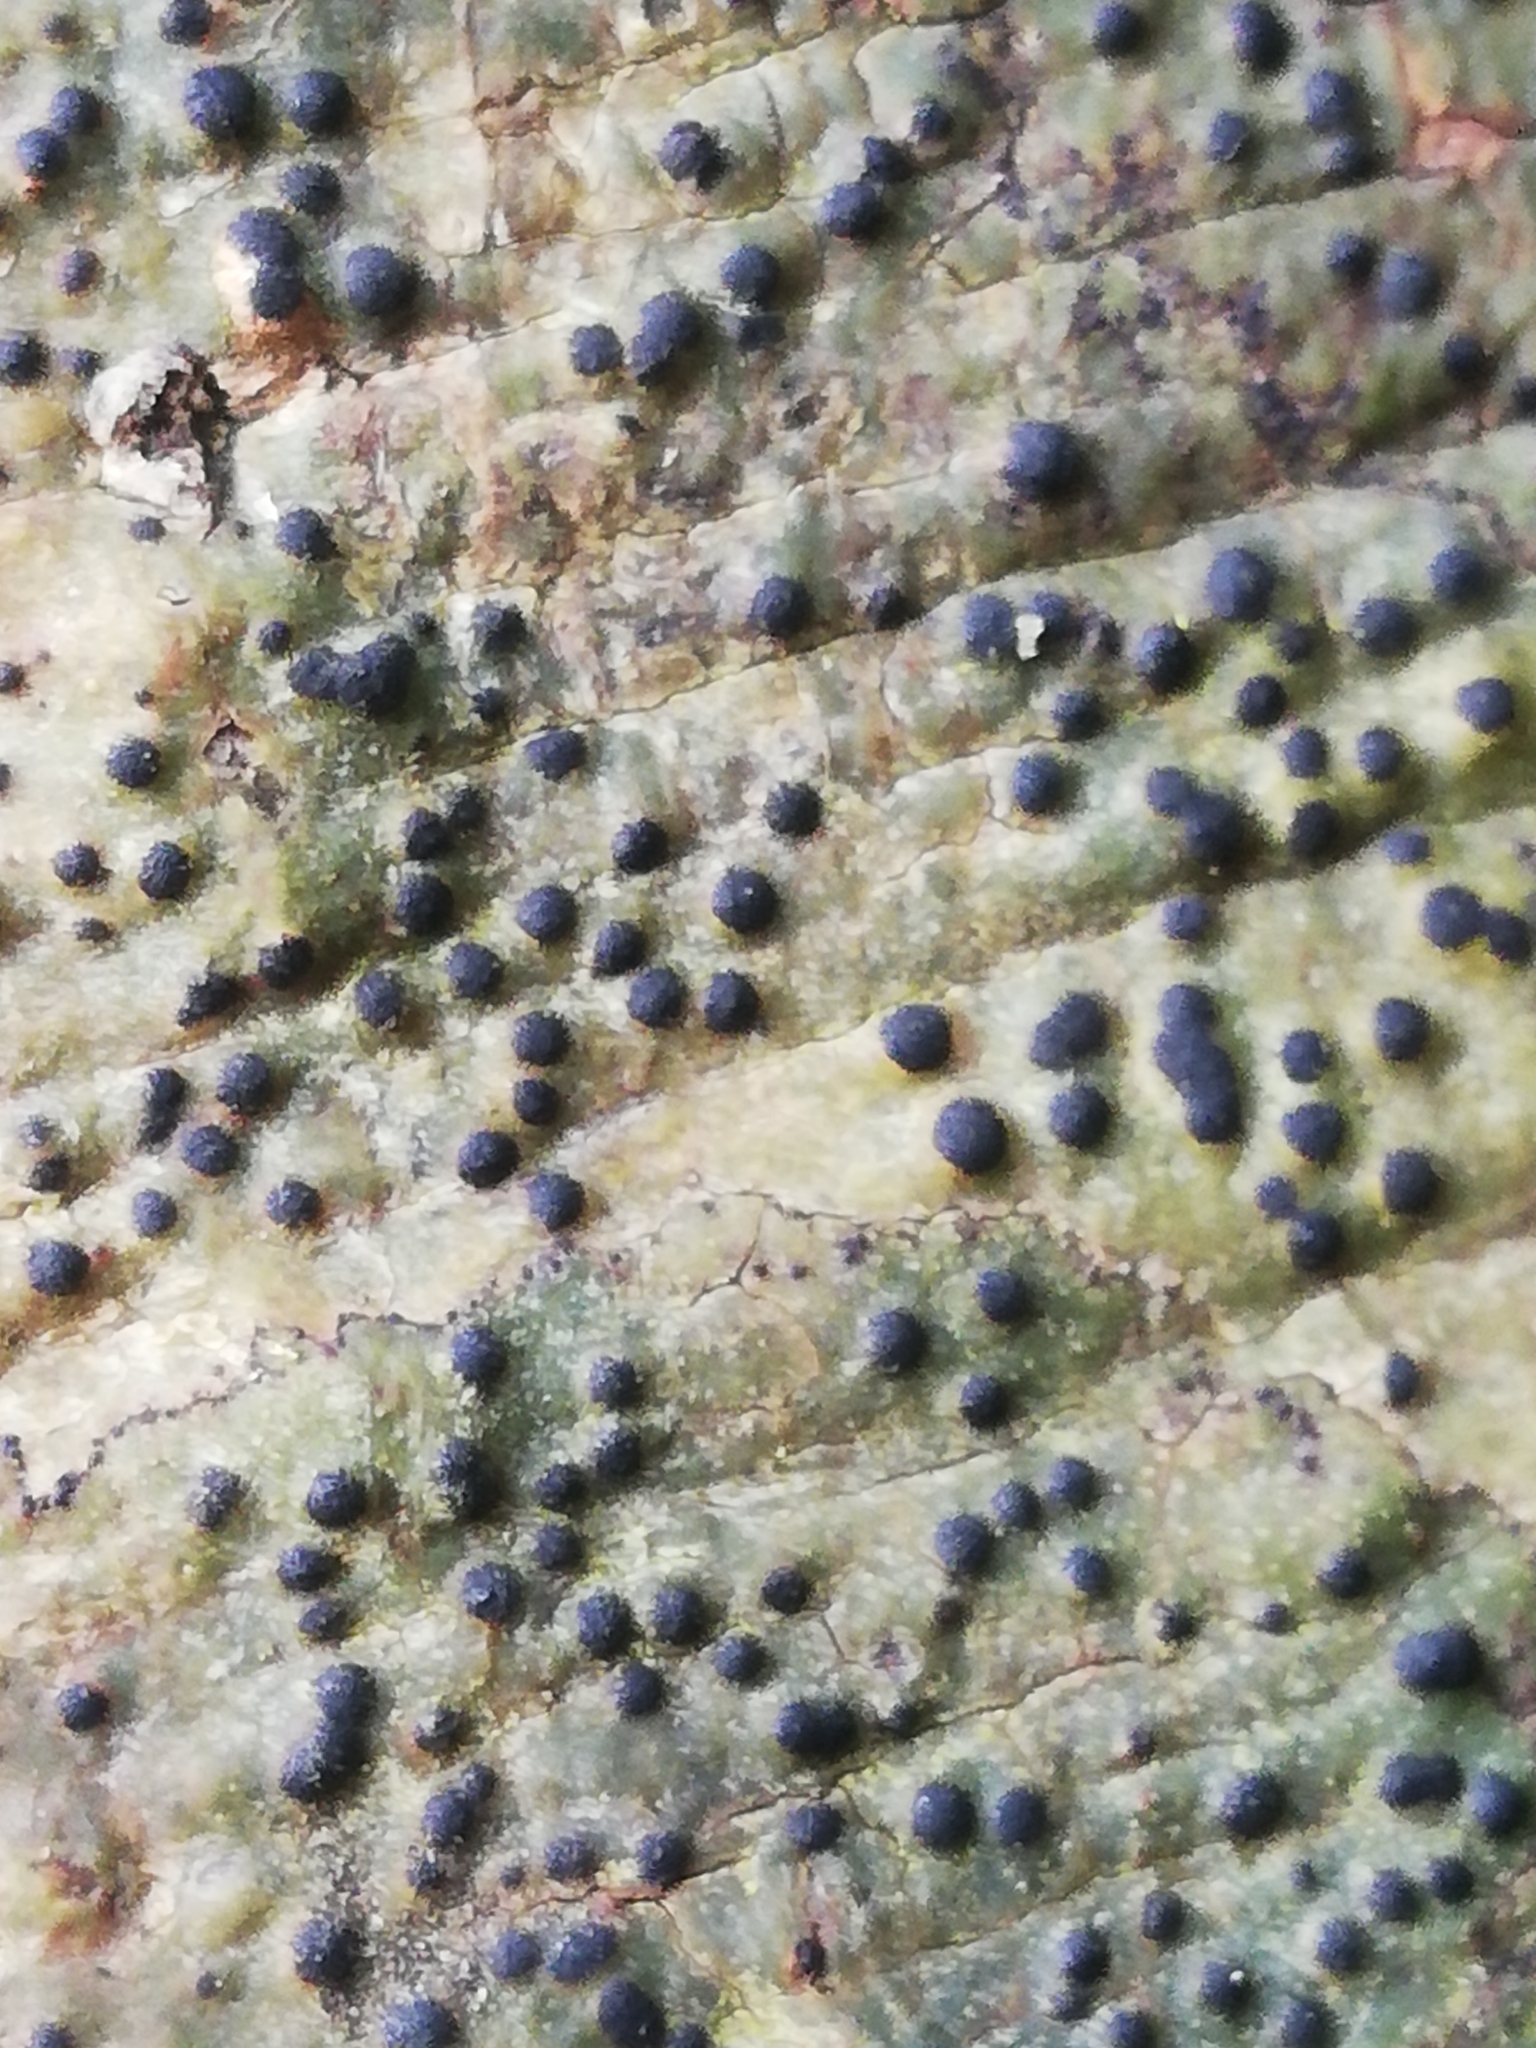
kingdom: Fungi
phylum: Ascomycota
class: Eurotiomycetes
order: Pyrenulales
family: Pyrenulaceae
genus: Pyrenula
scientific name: Pyrenula nitida
